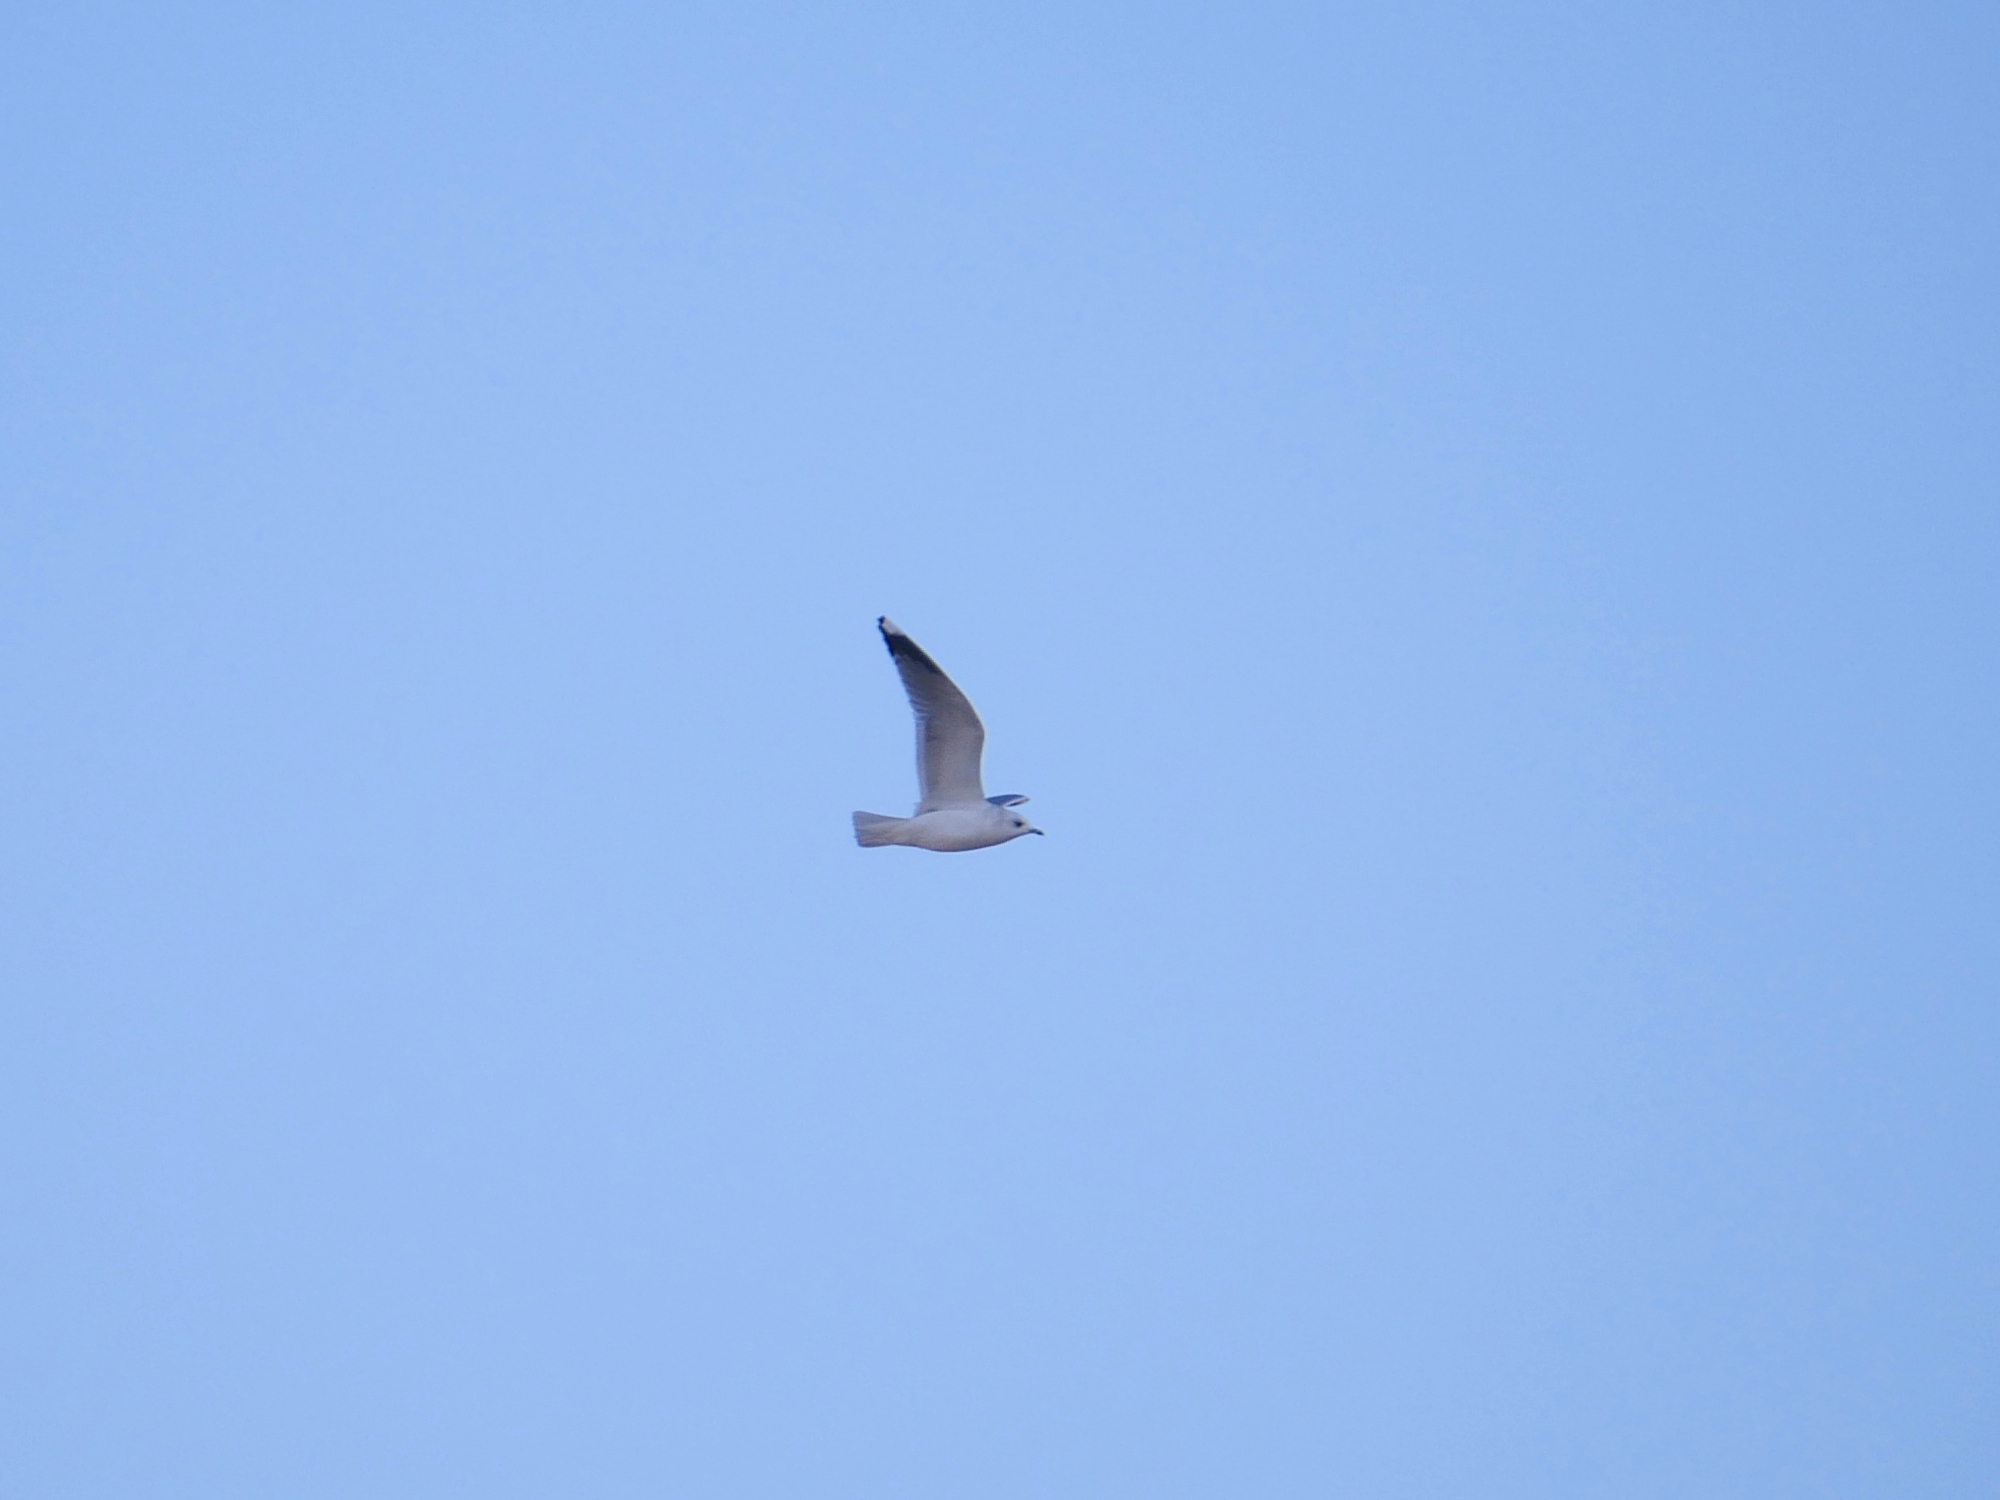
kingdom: Animalia
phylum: Chordata
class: Aves
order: Charadriiformes
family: Laridae
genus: Larus
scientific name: Larus canus
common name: Mew gull
